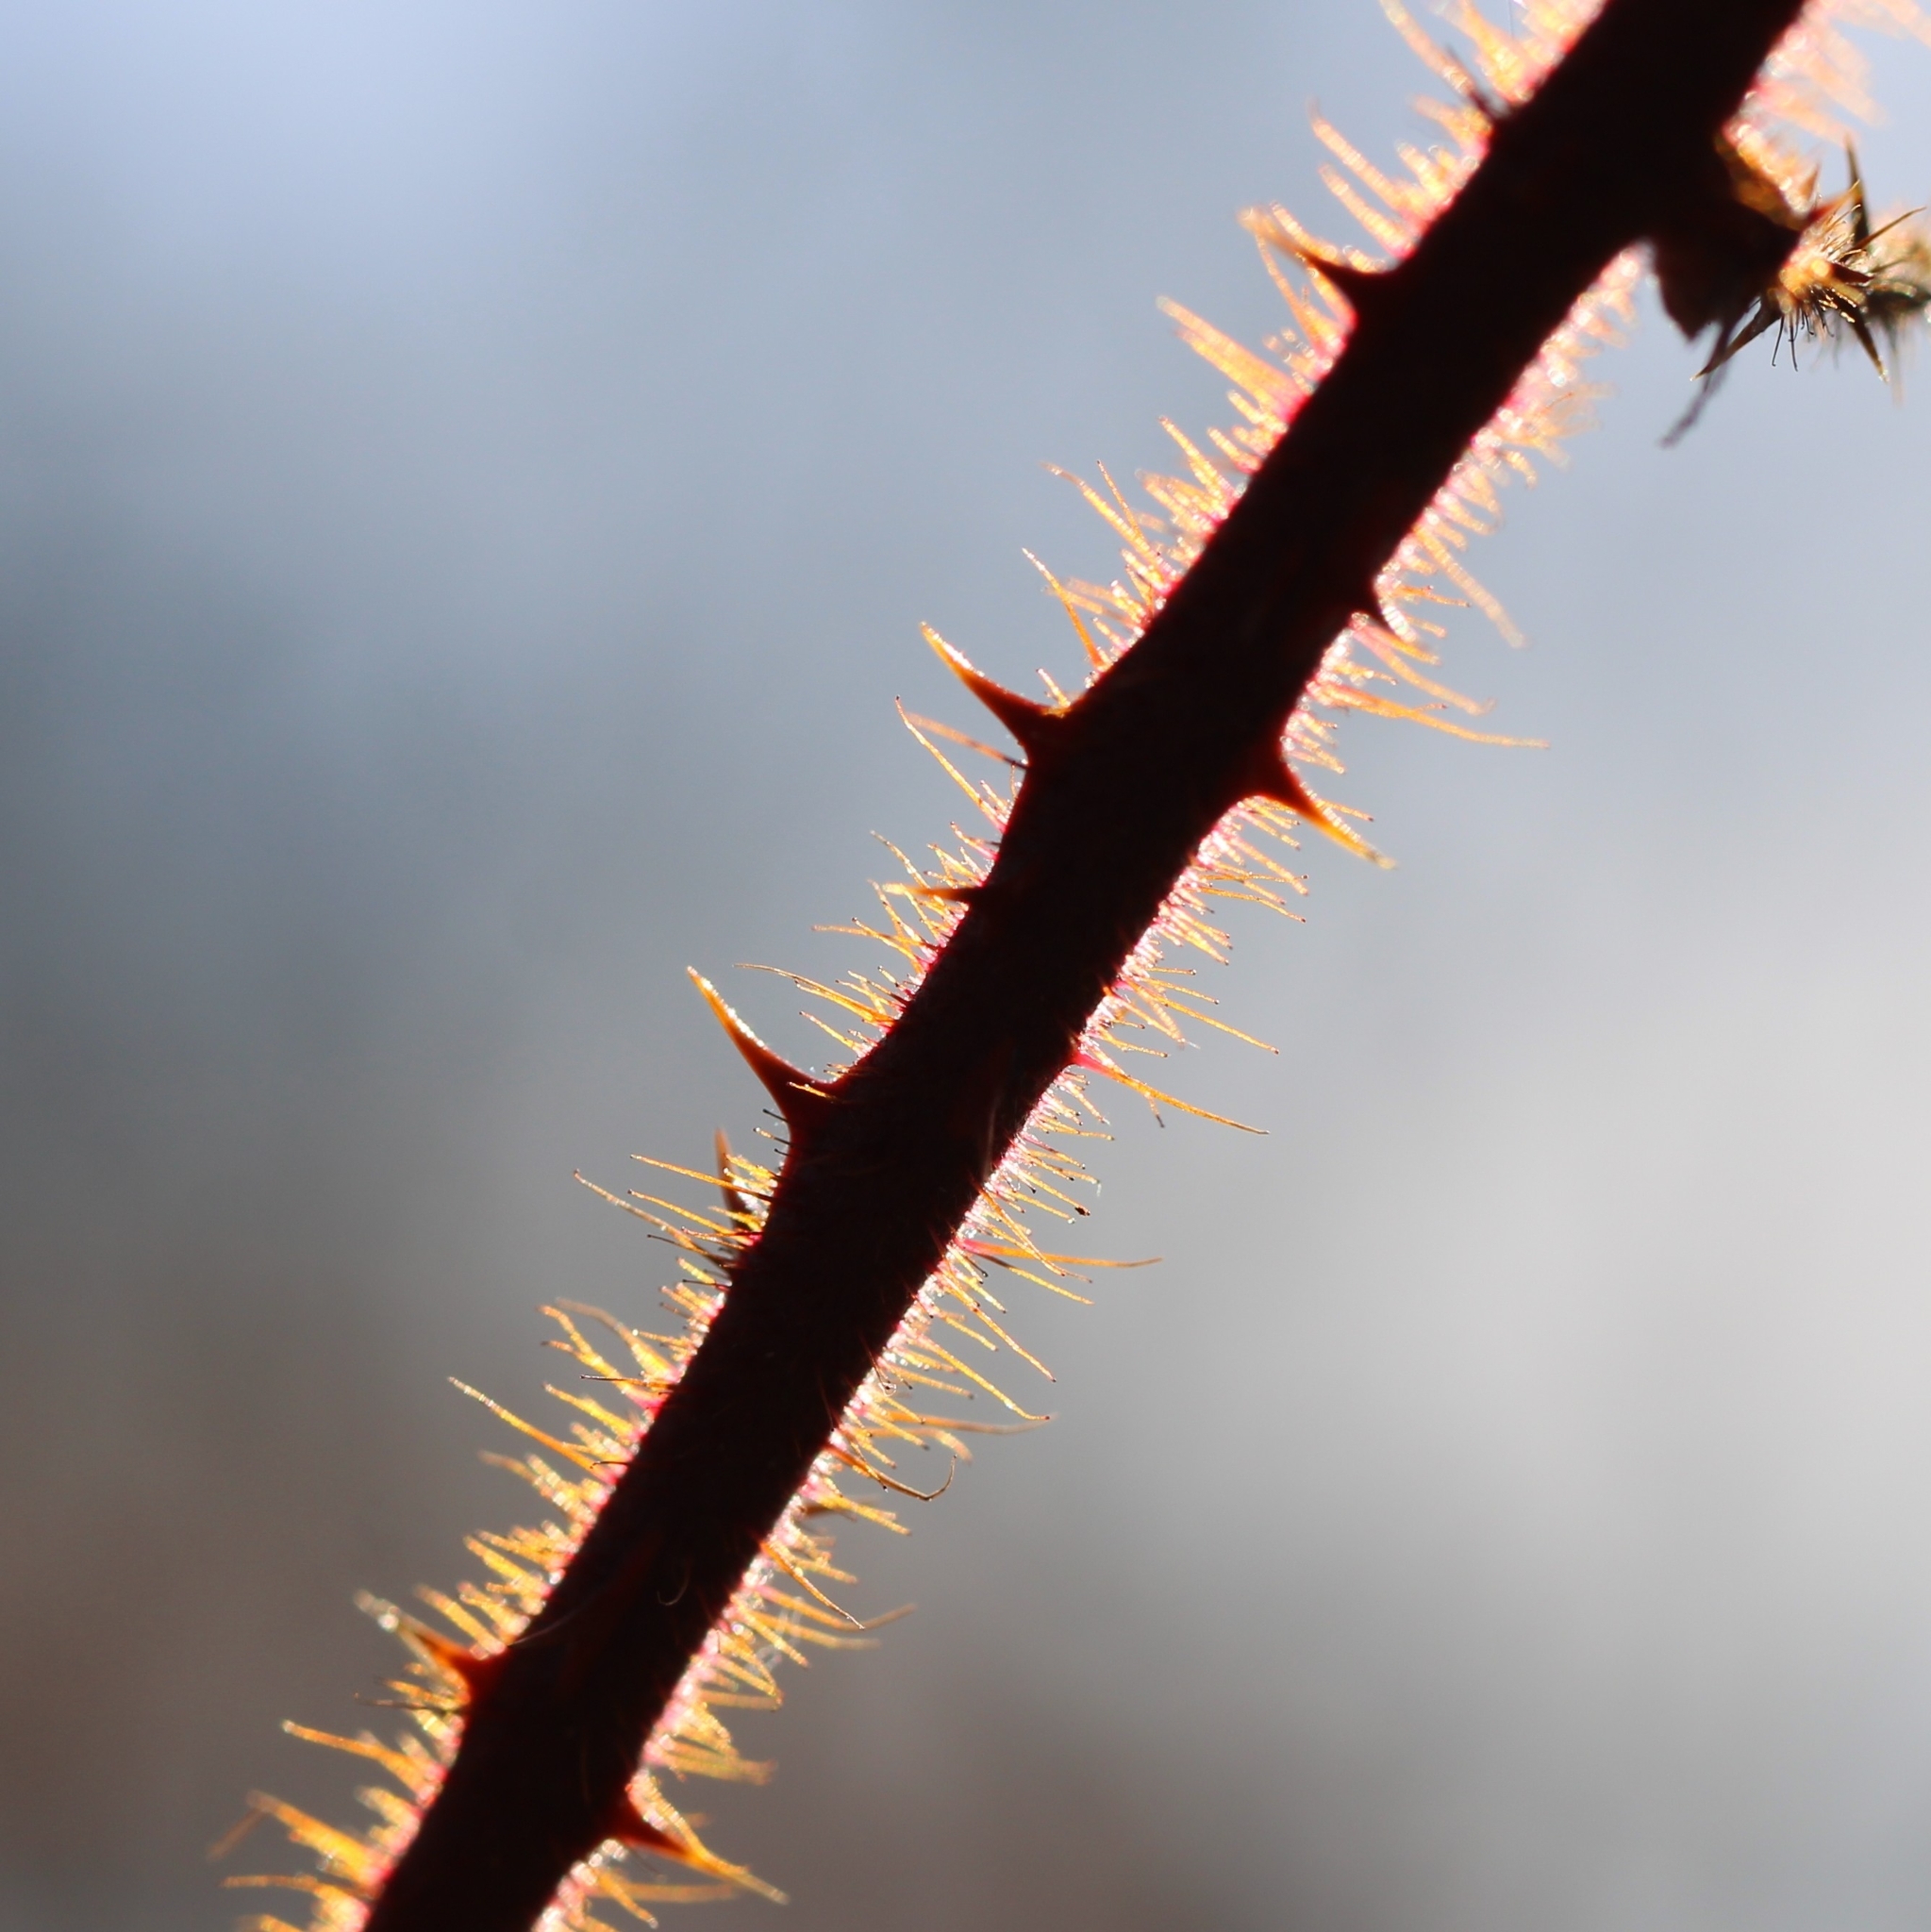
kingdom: Plantae
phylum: Tracheophyta
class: Magnoliopsida
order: Rosales
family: Rosaceae
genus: Rubus
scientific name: Rubus phoenicolasius
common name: Japanese wineberry
